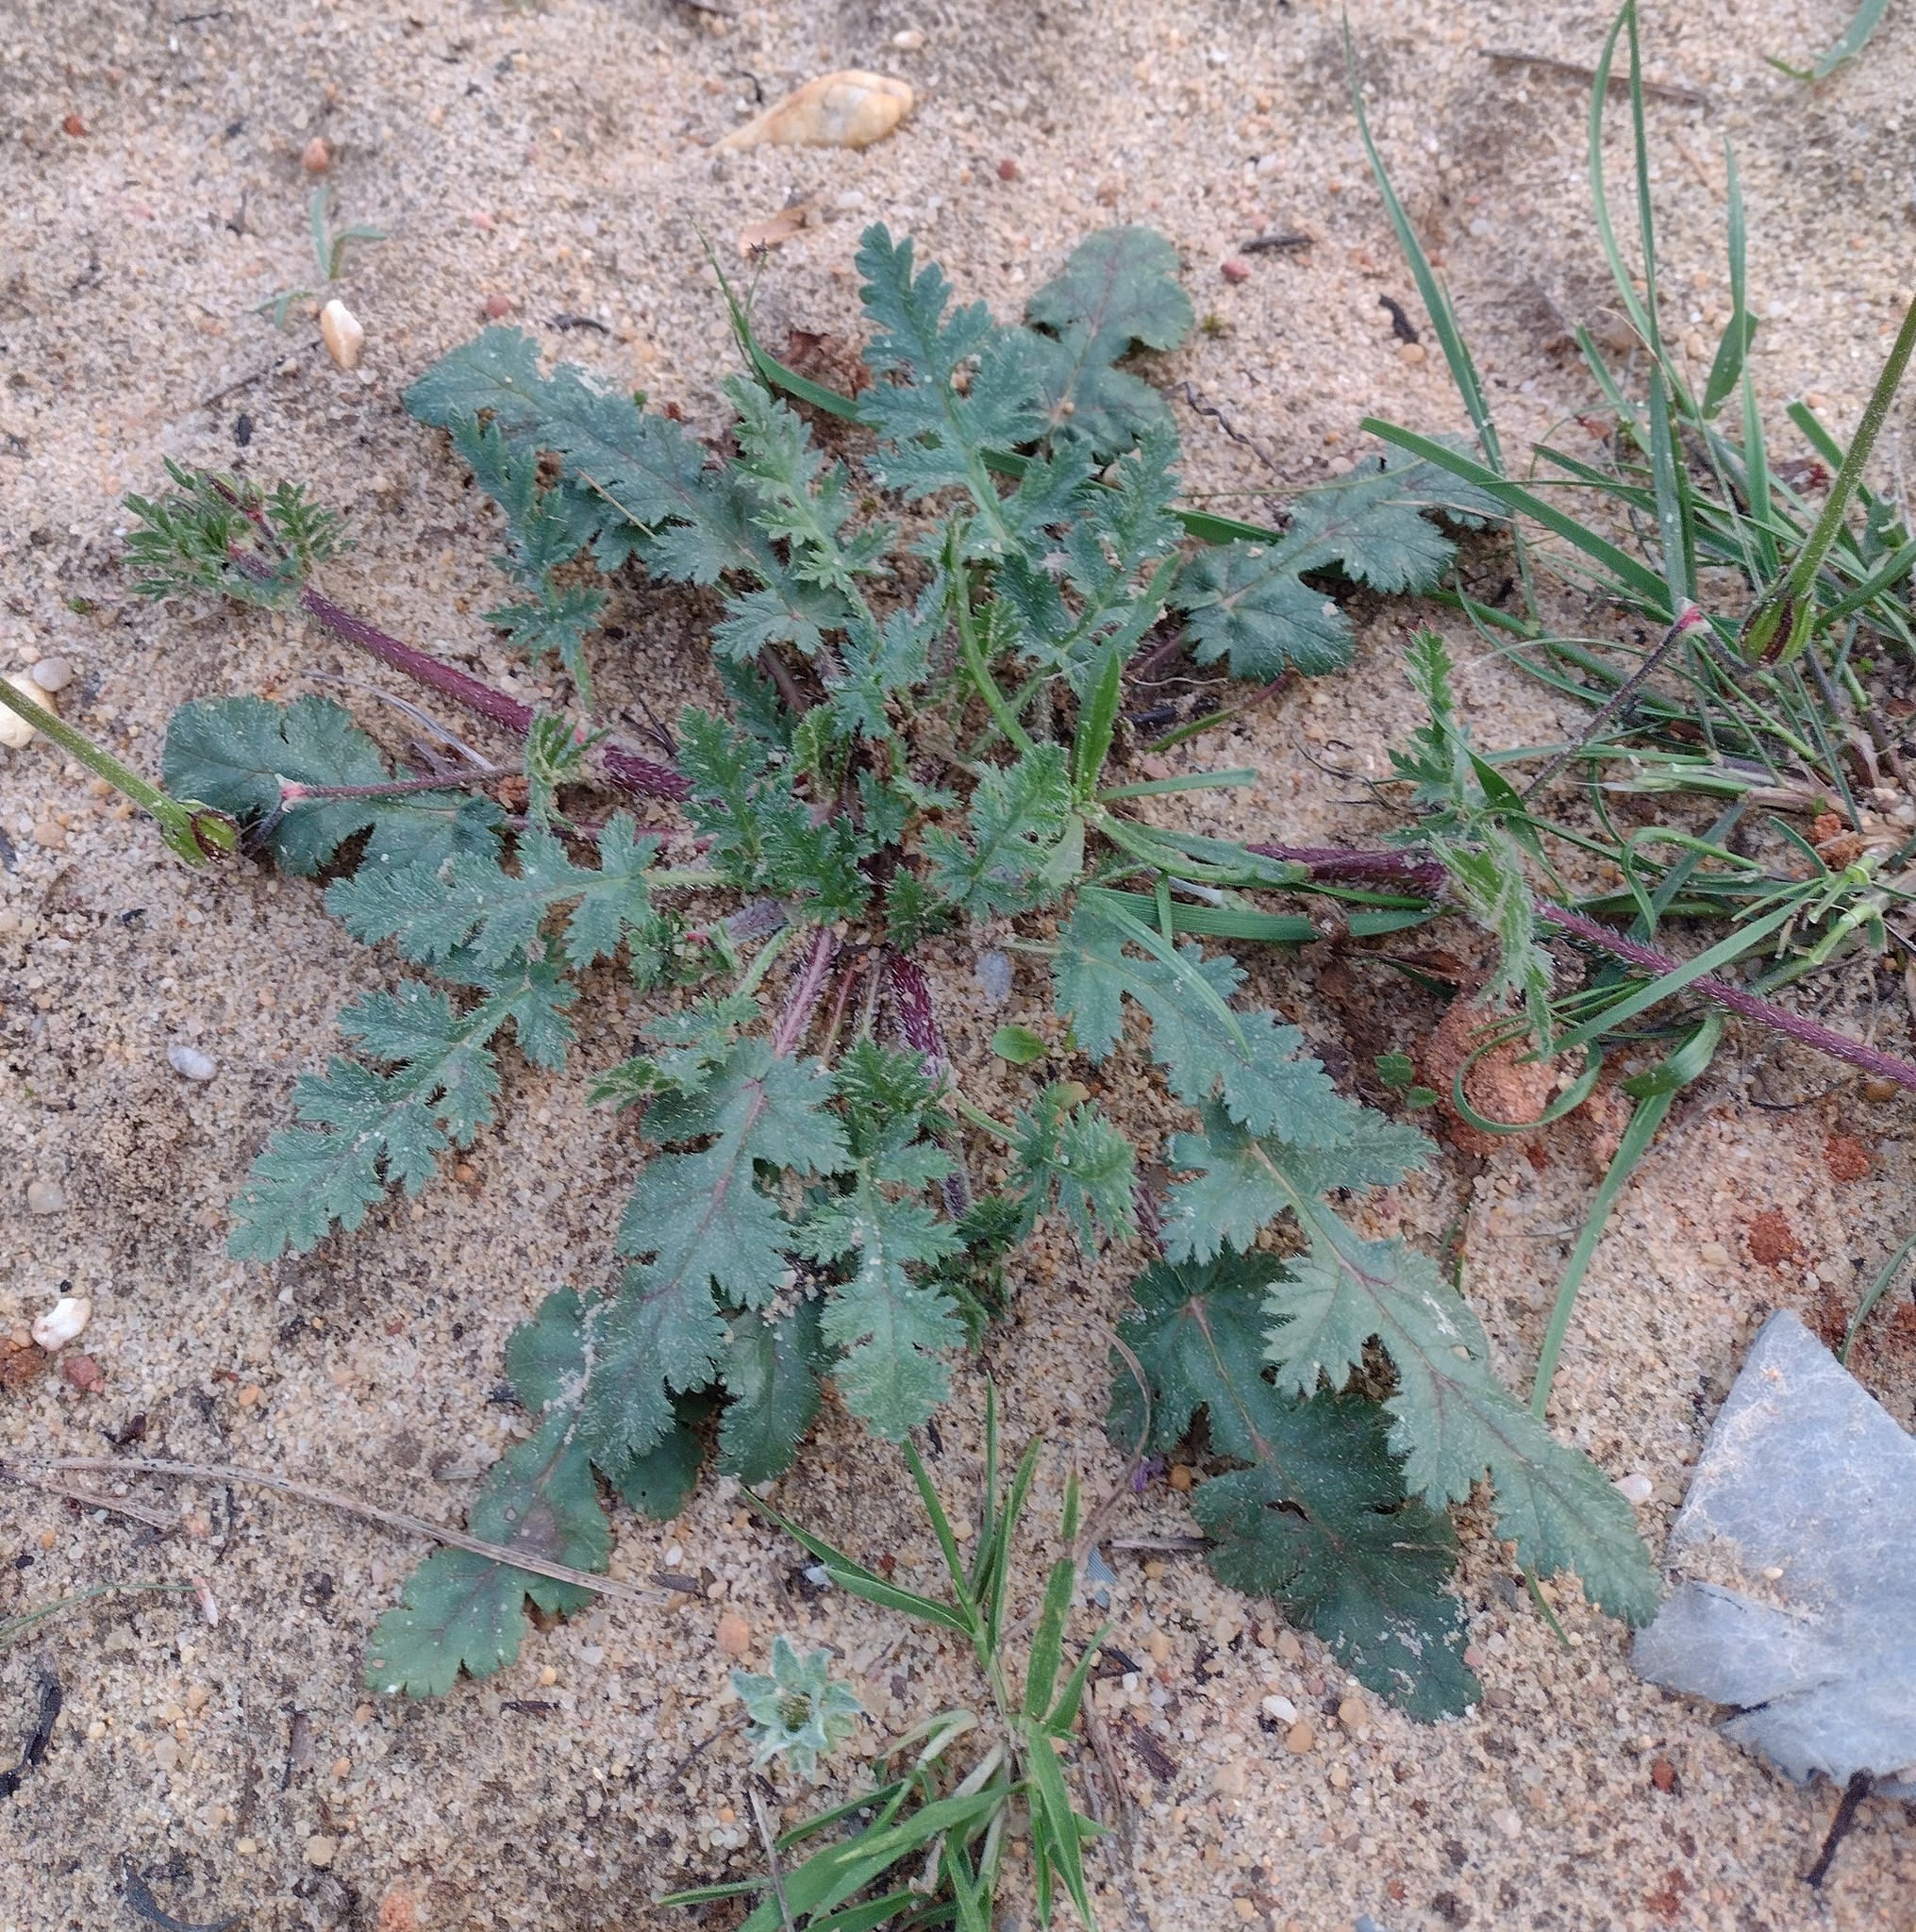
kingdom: Plantae
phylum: Tracheophyta
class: Magnoliopsida
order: Geraniales
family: Geraniaceae
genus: Erodium
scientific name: Erodium botrys
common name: Mediterranean stork's-bill
